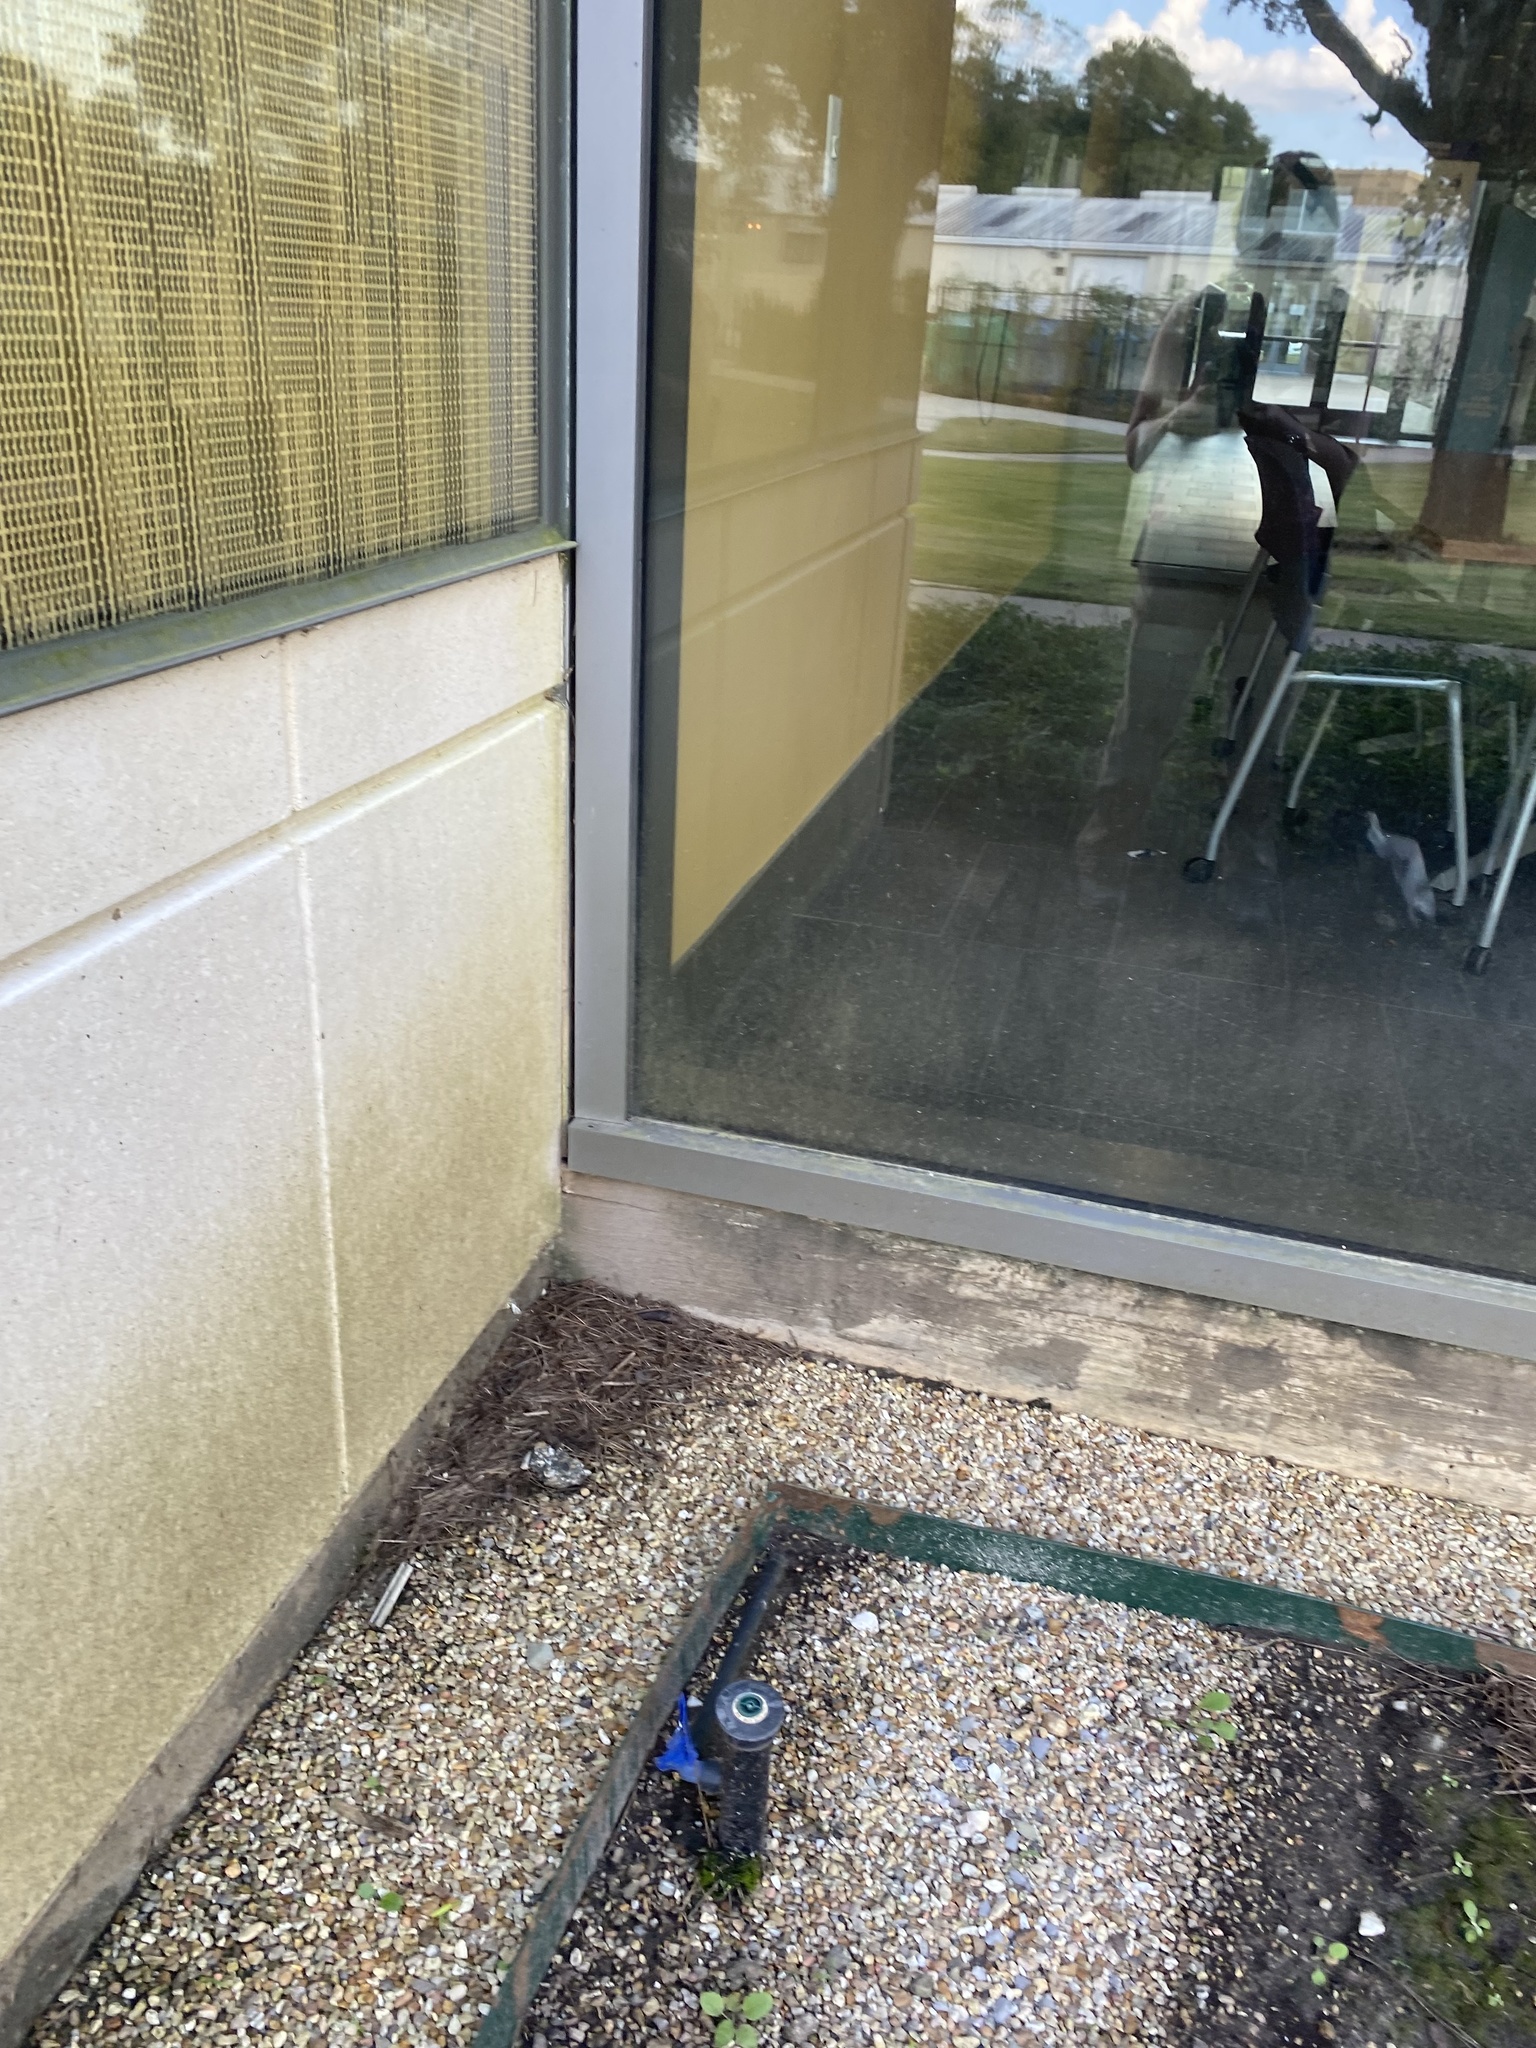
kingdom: Animalia
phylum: Chordata
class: Aves
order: Passeriformes
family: Parulidae
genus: Geothlypis
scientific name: Geothlypis trichas
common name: Common yellowthroat
